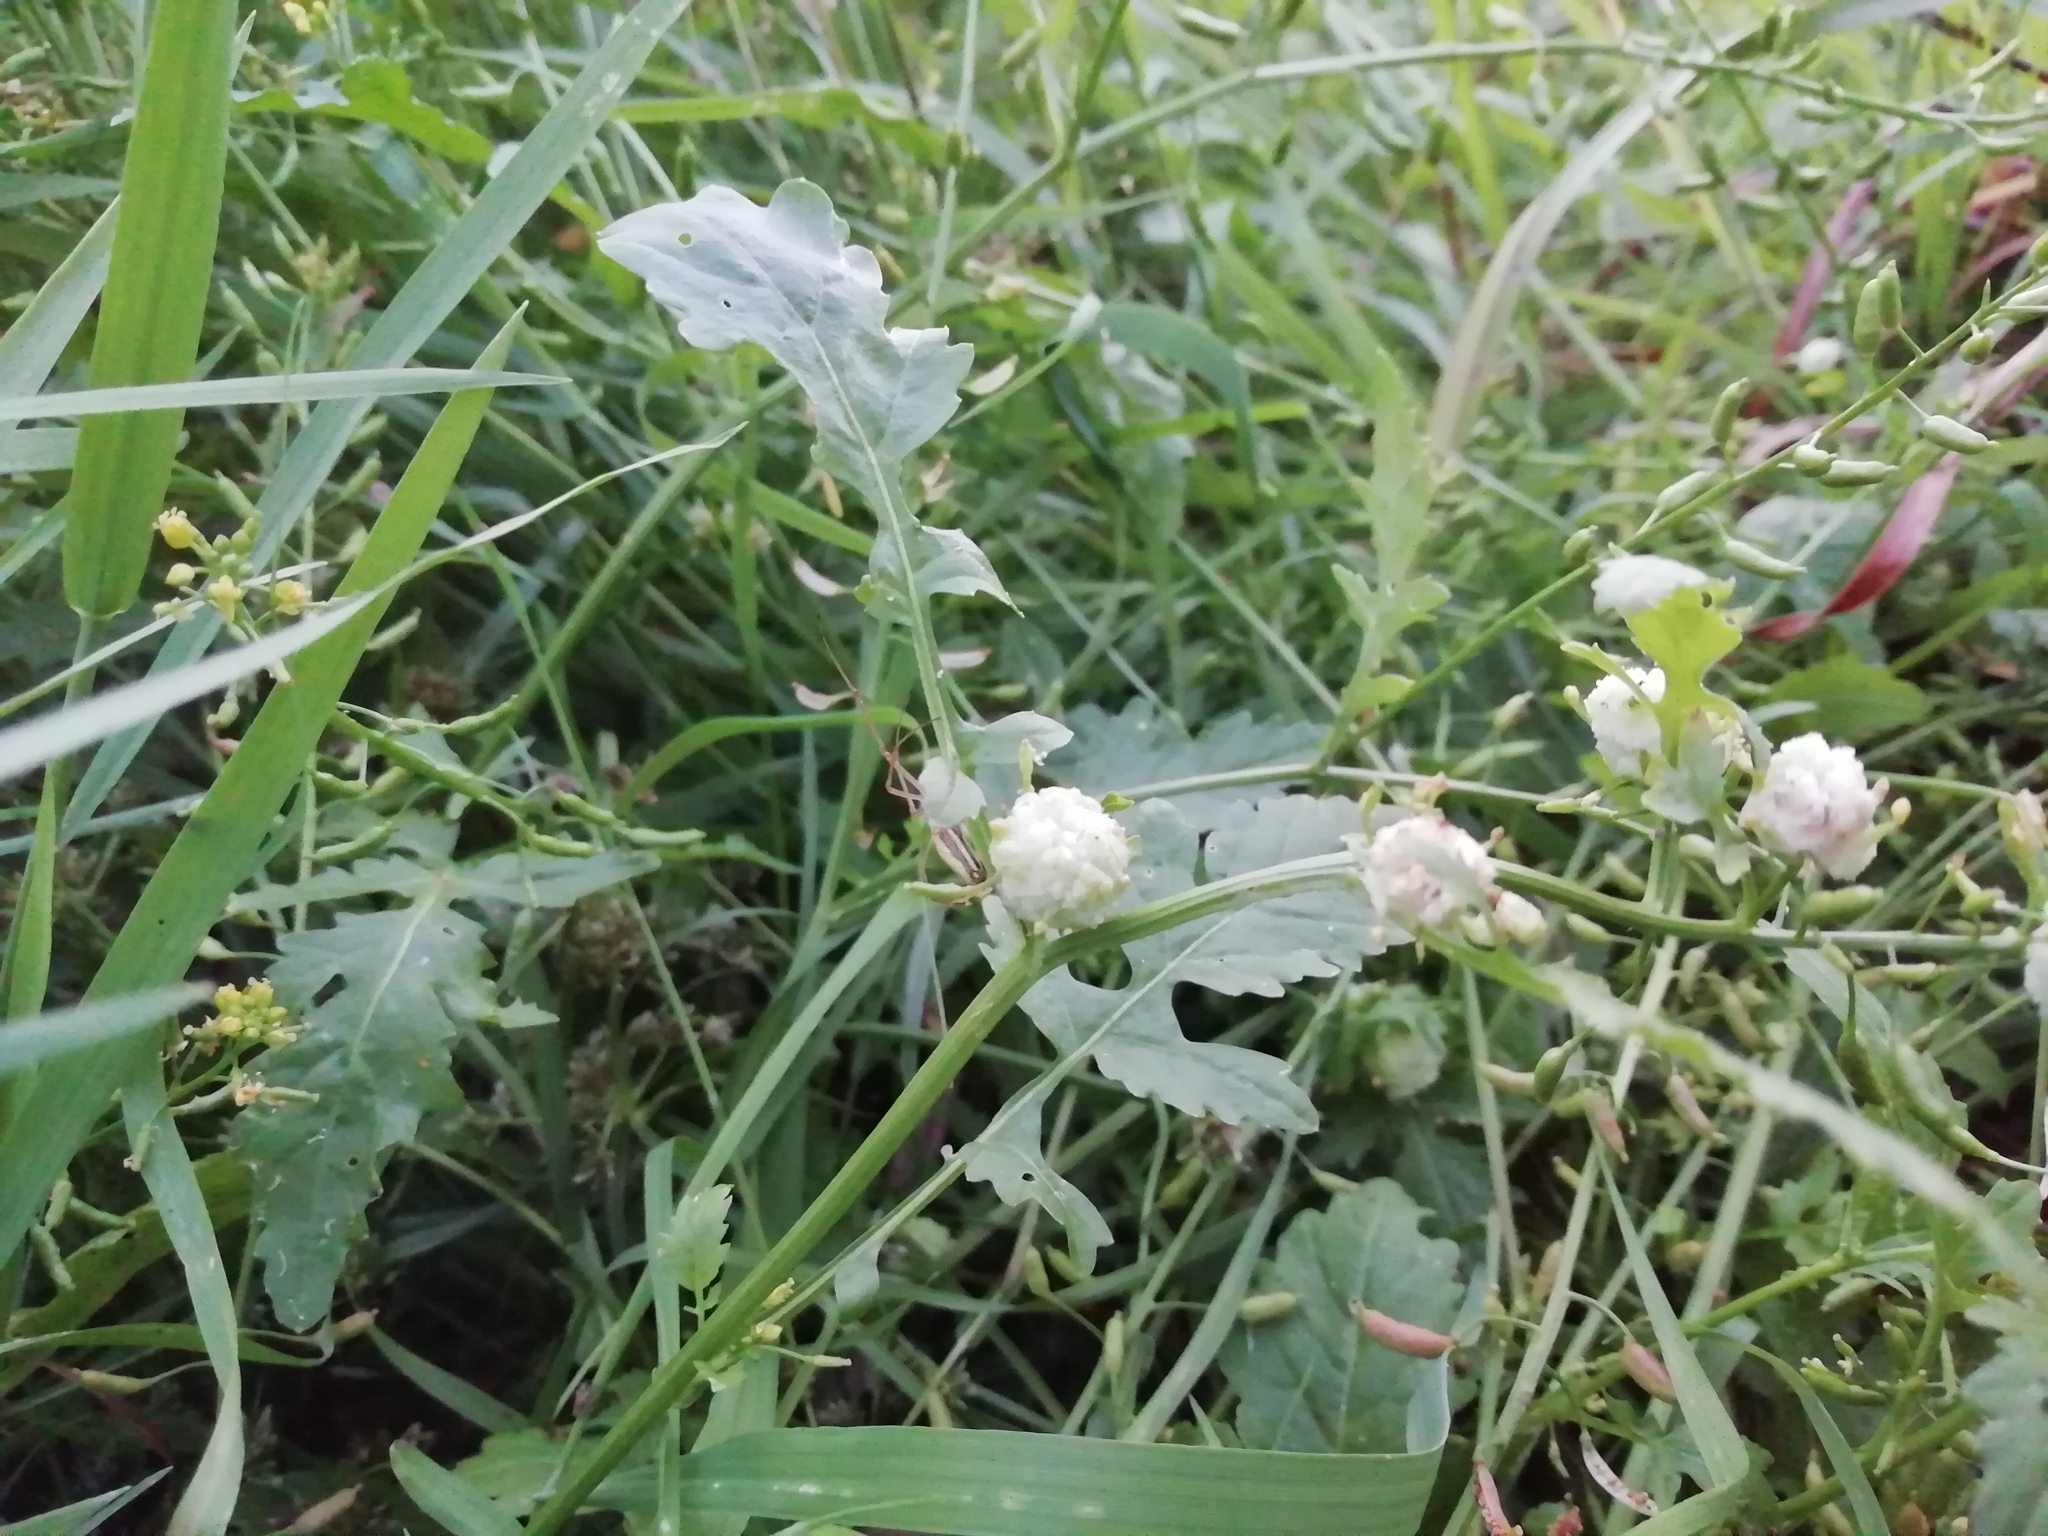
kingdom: Plantae
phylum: Tracheophyta
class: Magnoliopsida
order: Brassicales
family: Brassicaceae
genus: Rorippa
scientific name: Rorippa palustris
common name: Marsh yellow-cress
